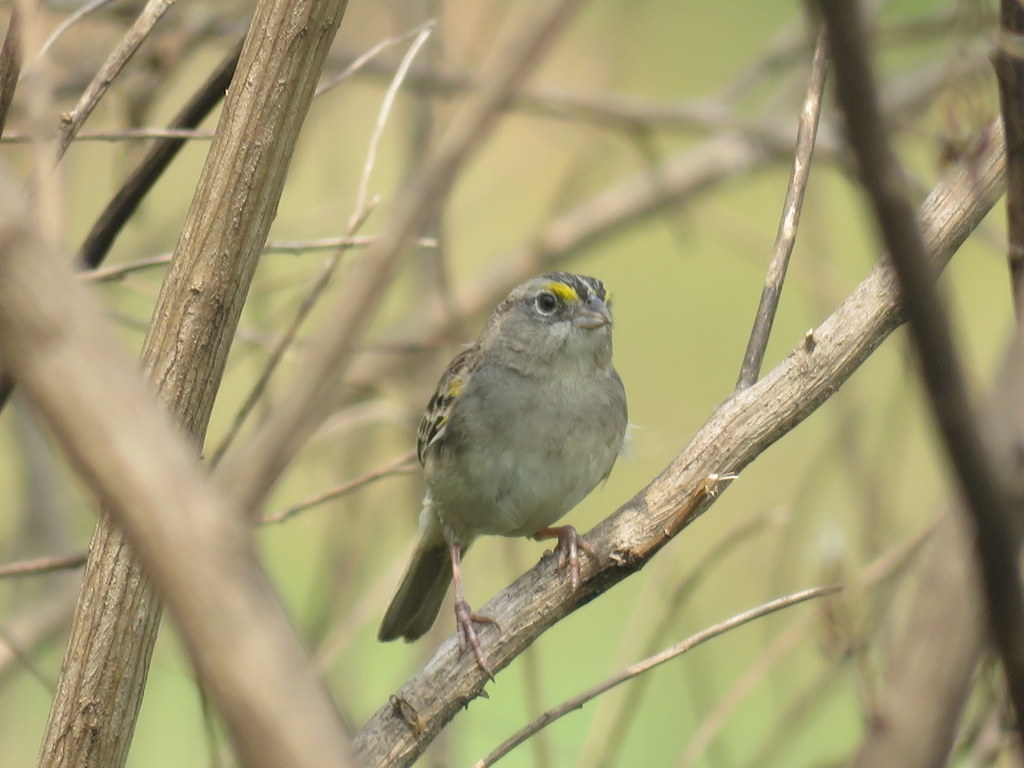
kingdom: Animalia
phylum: Chordata
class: Aves
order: Passeriformes
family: Passerellidae
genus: Ammodramus
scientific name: Ammodramus humeralis
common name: Grassland sparrow
